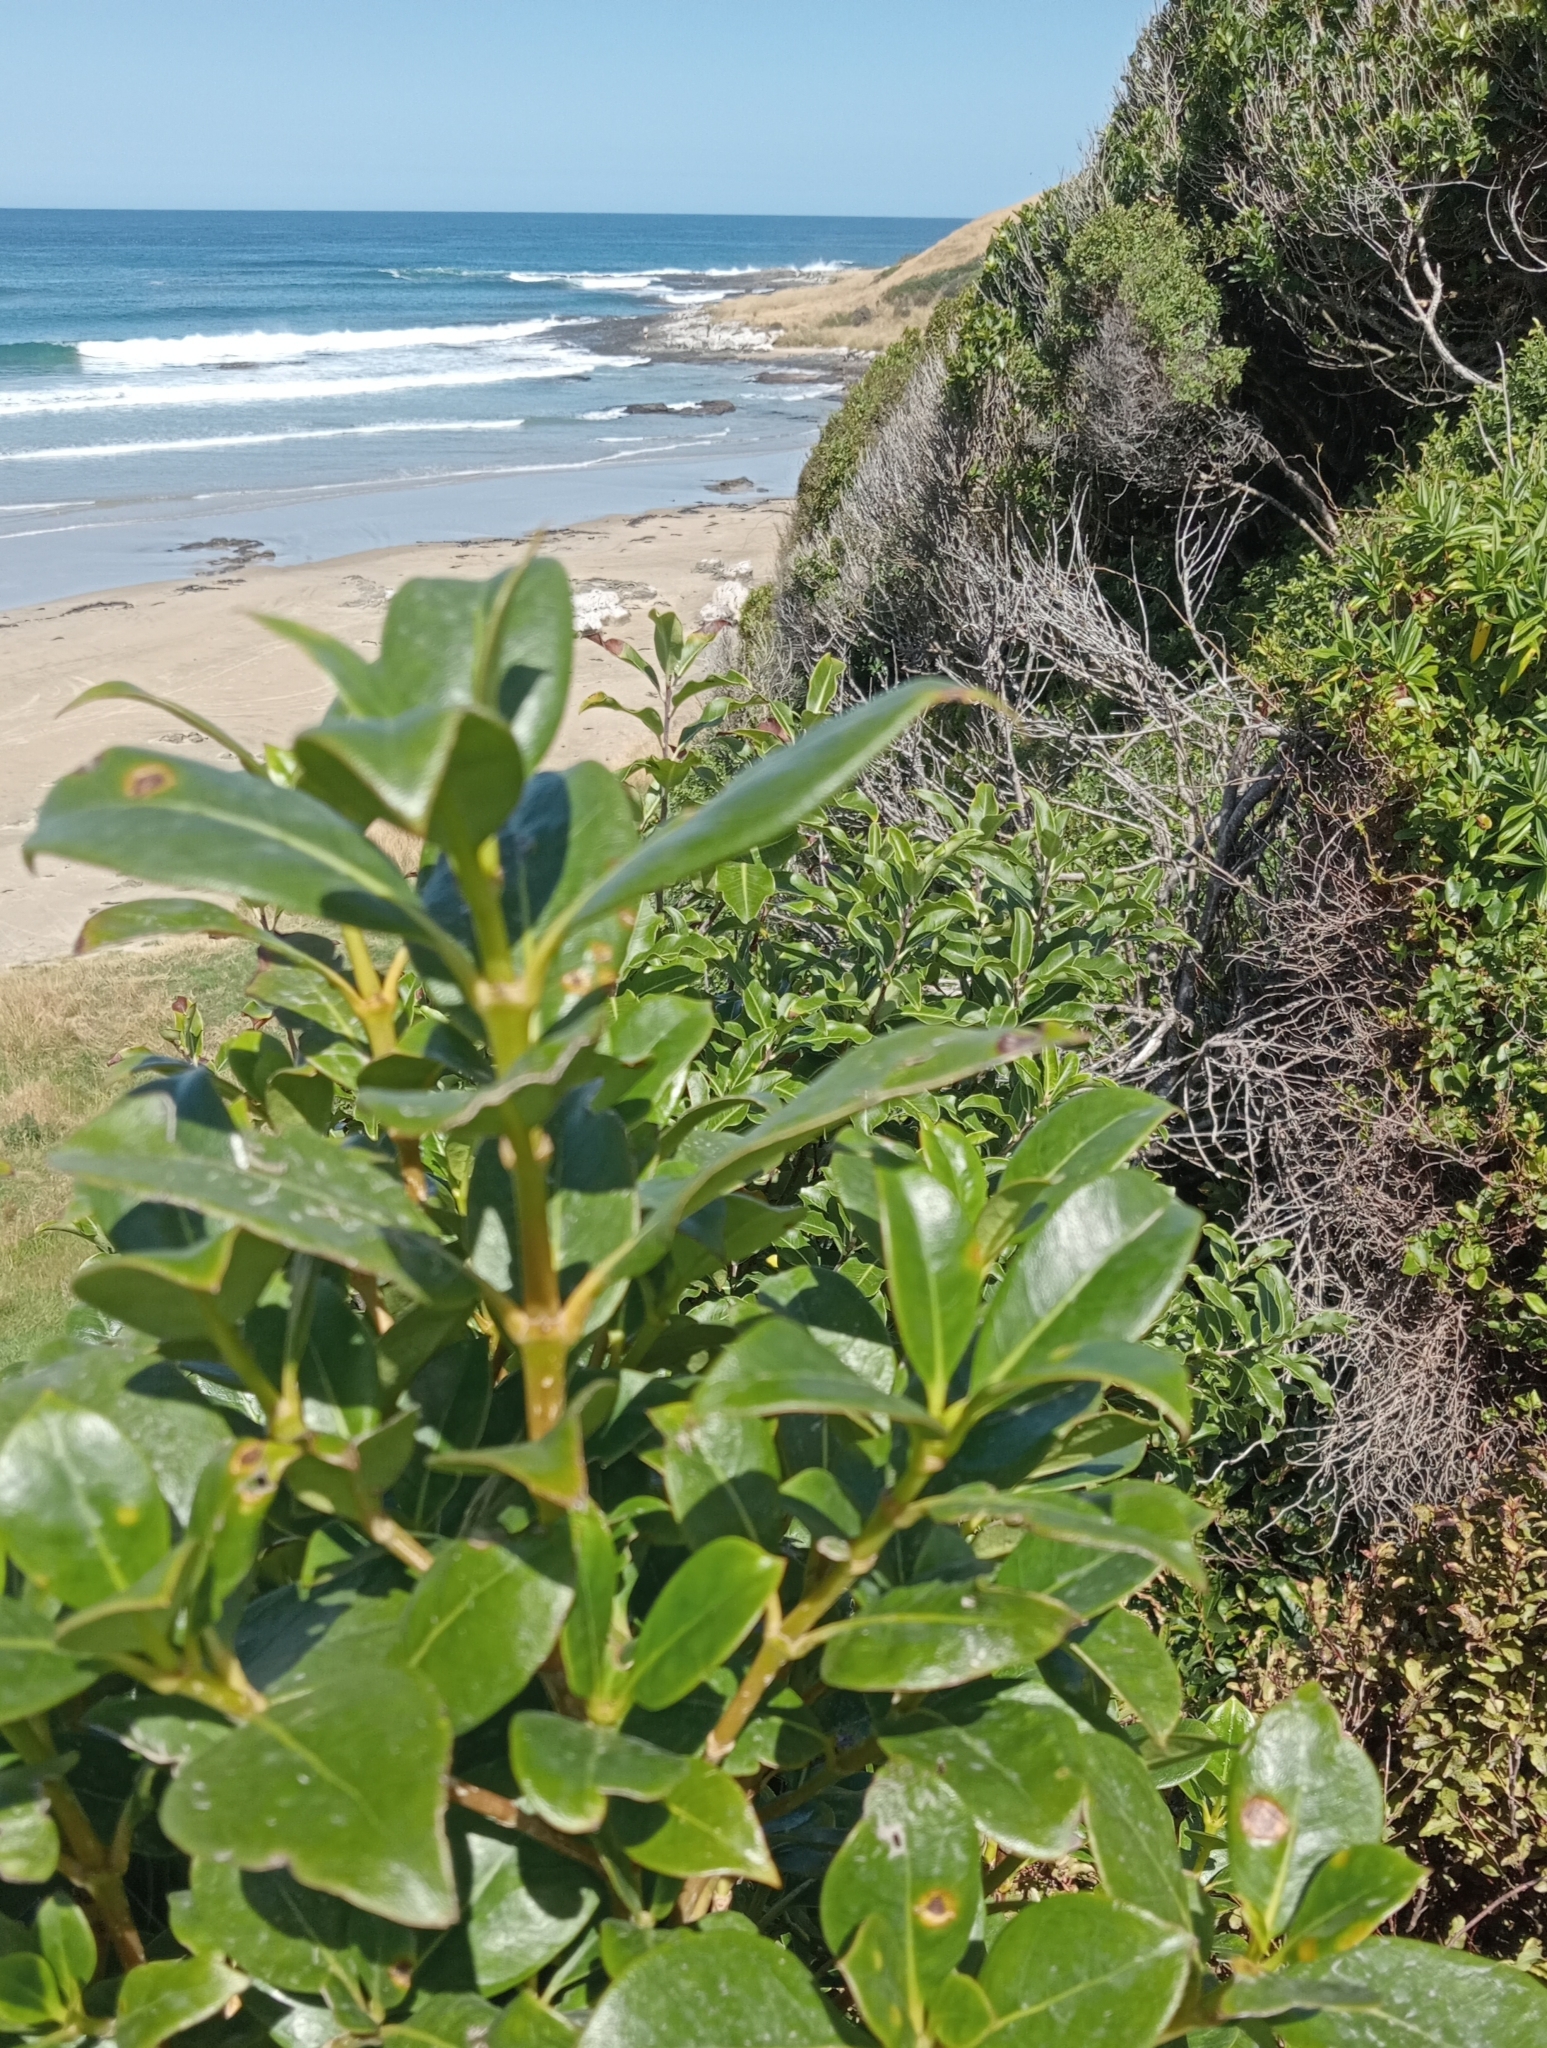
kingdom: Plantae
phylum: Tracheophyta
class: Magnoliopsida
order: Gentianales
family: Rubiaceae
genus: Coprosma
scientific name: Coprosma lucida
